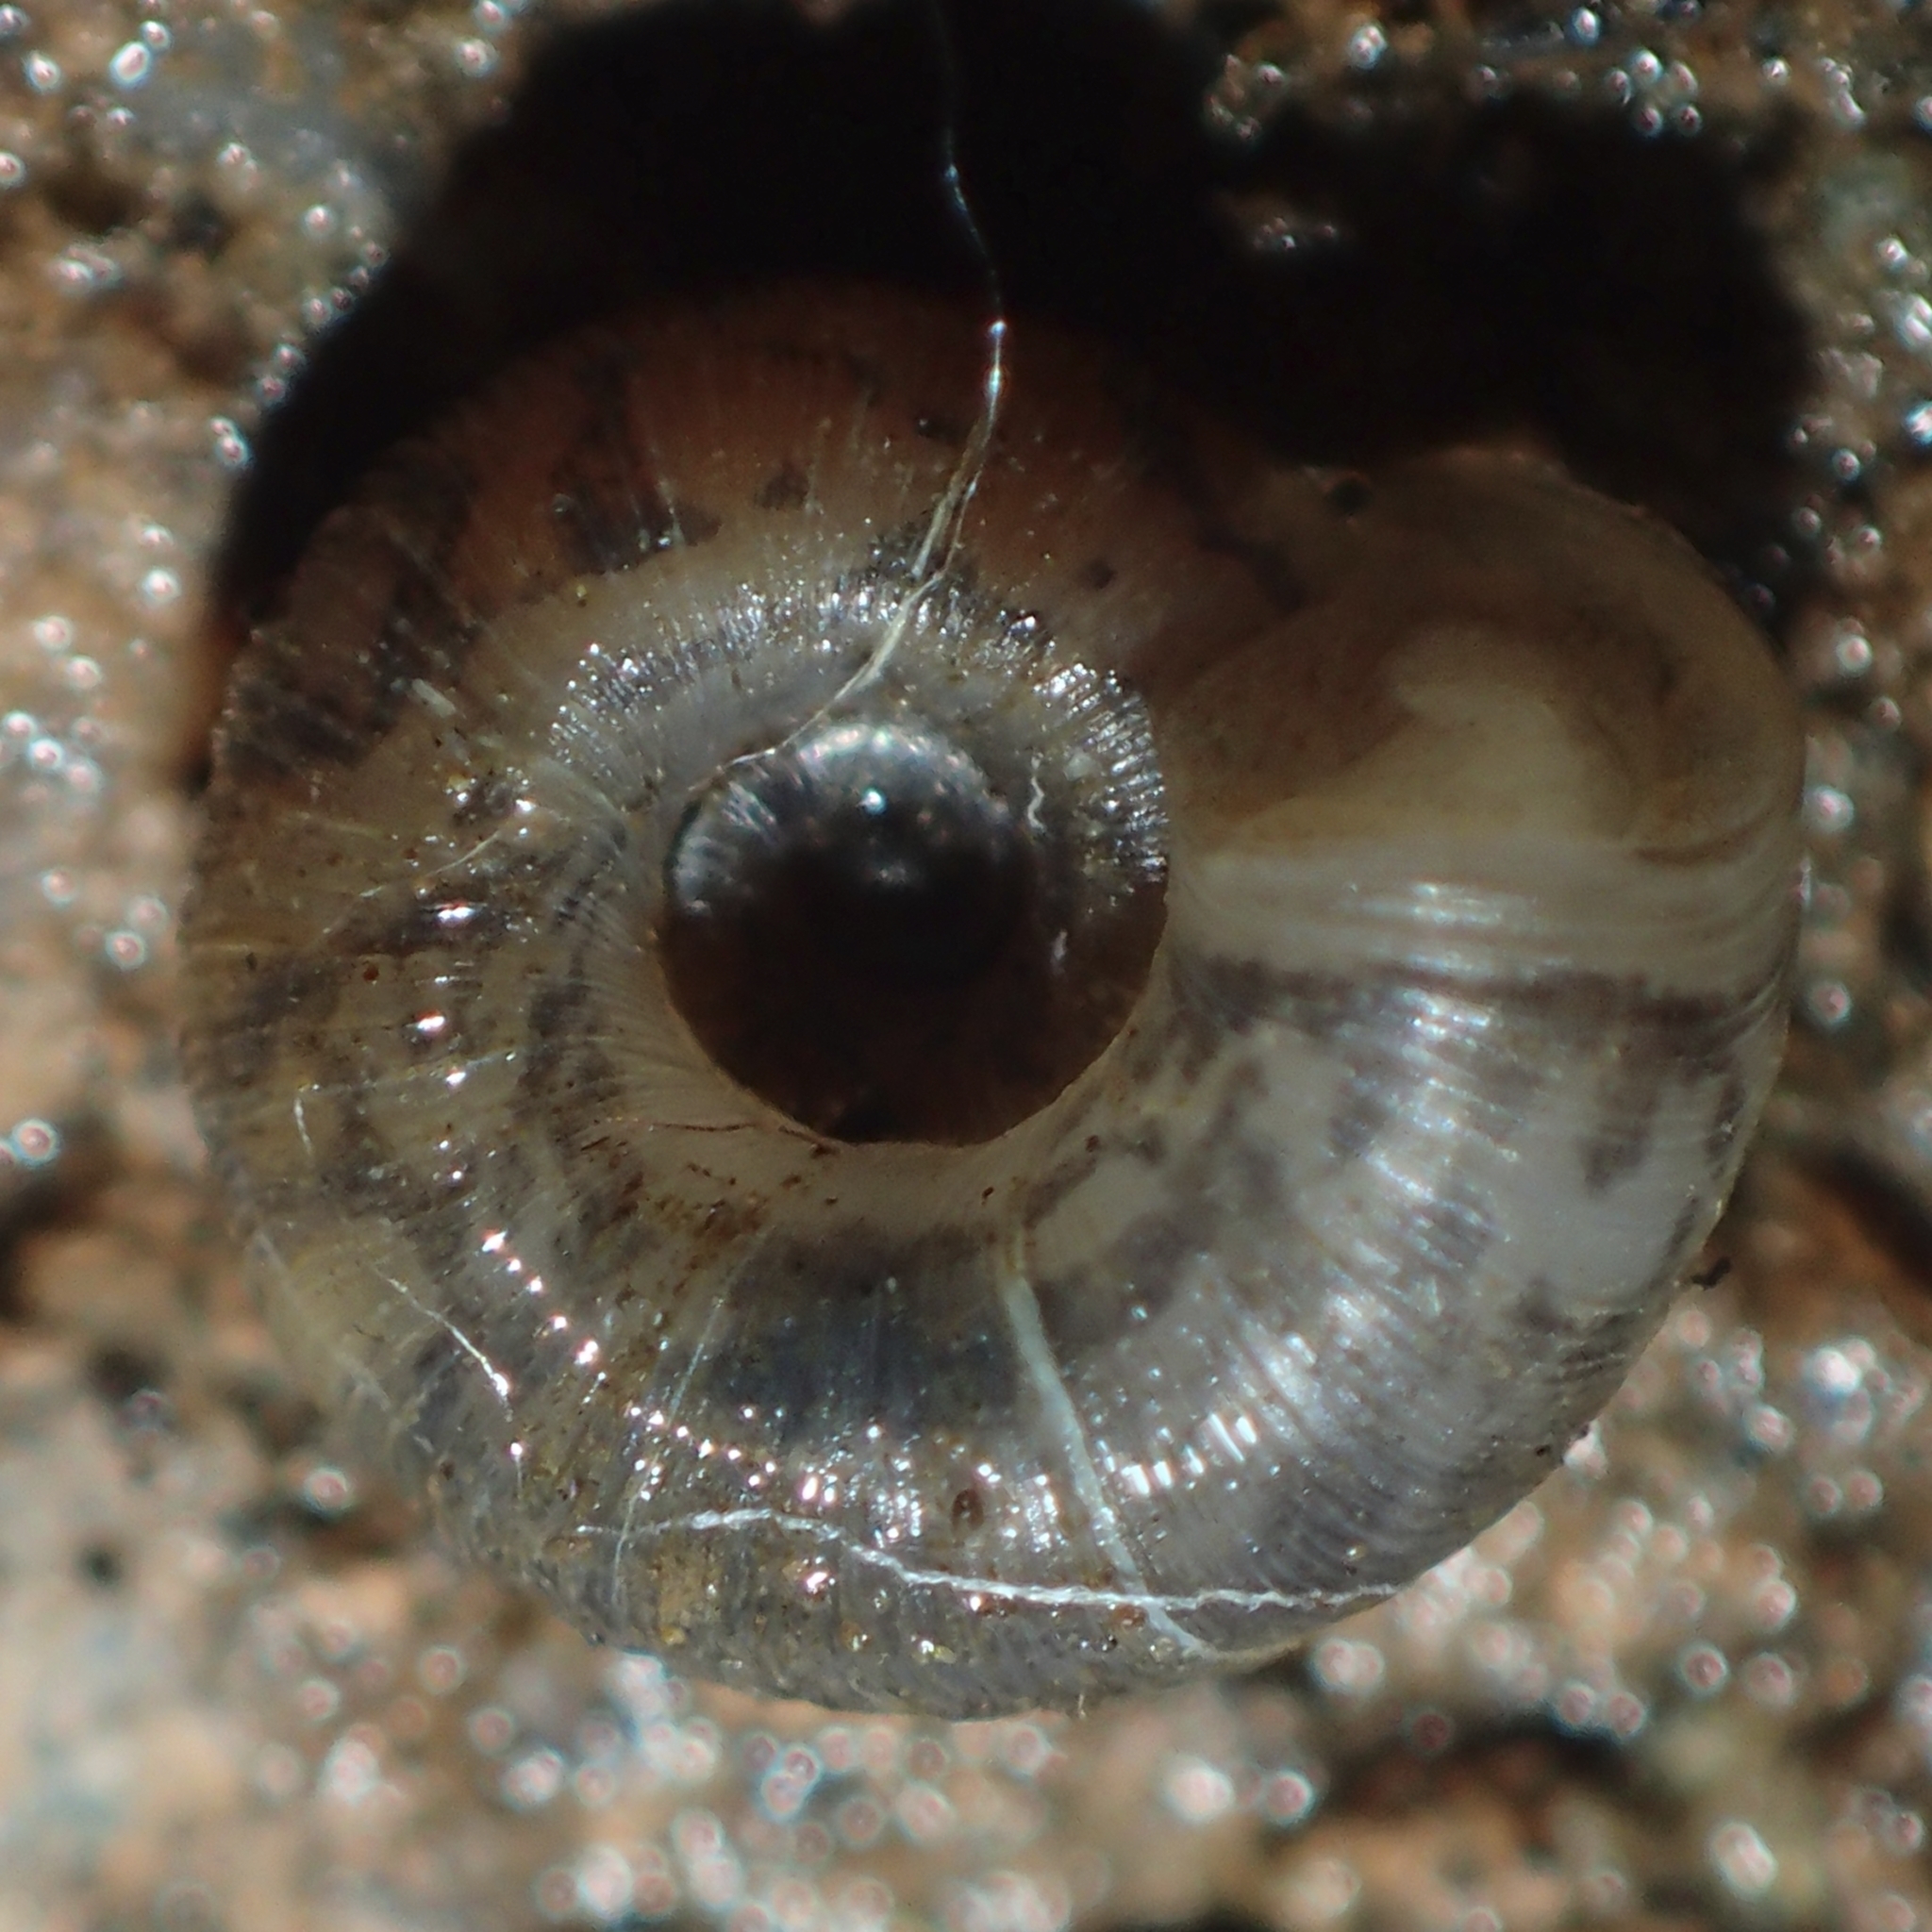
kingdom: Animalia
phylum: Mollusca
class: Gastropoda
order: Stylommatophora
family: Haplotrematidae
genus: Haplotrema
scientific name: Haplotrema alameda
